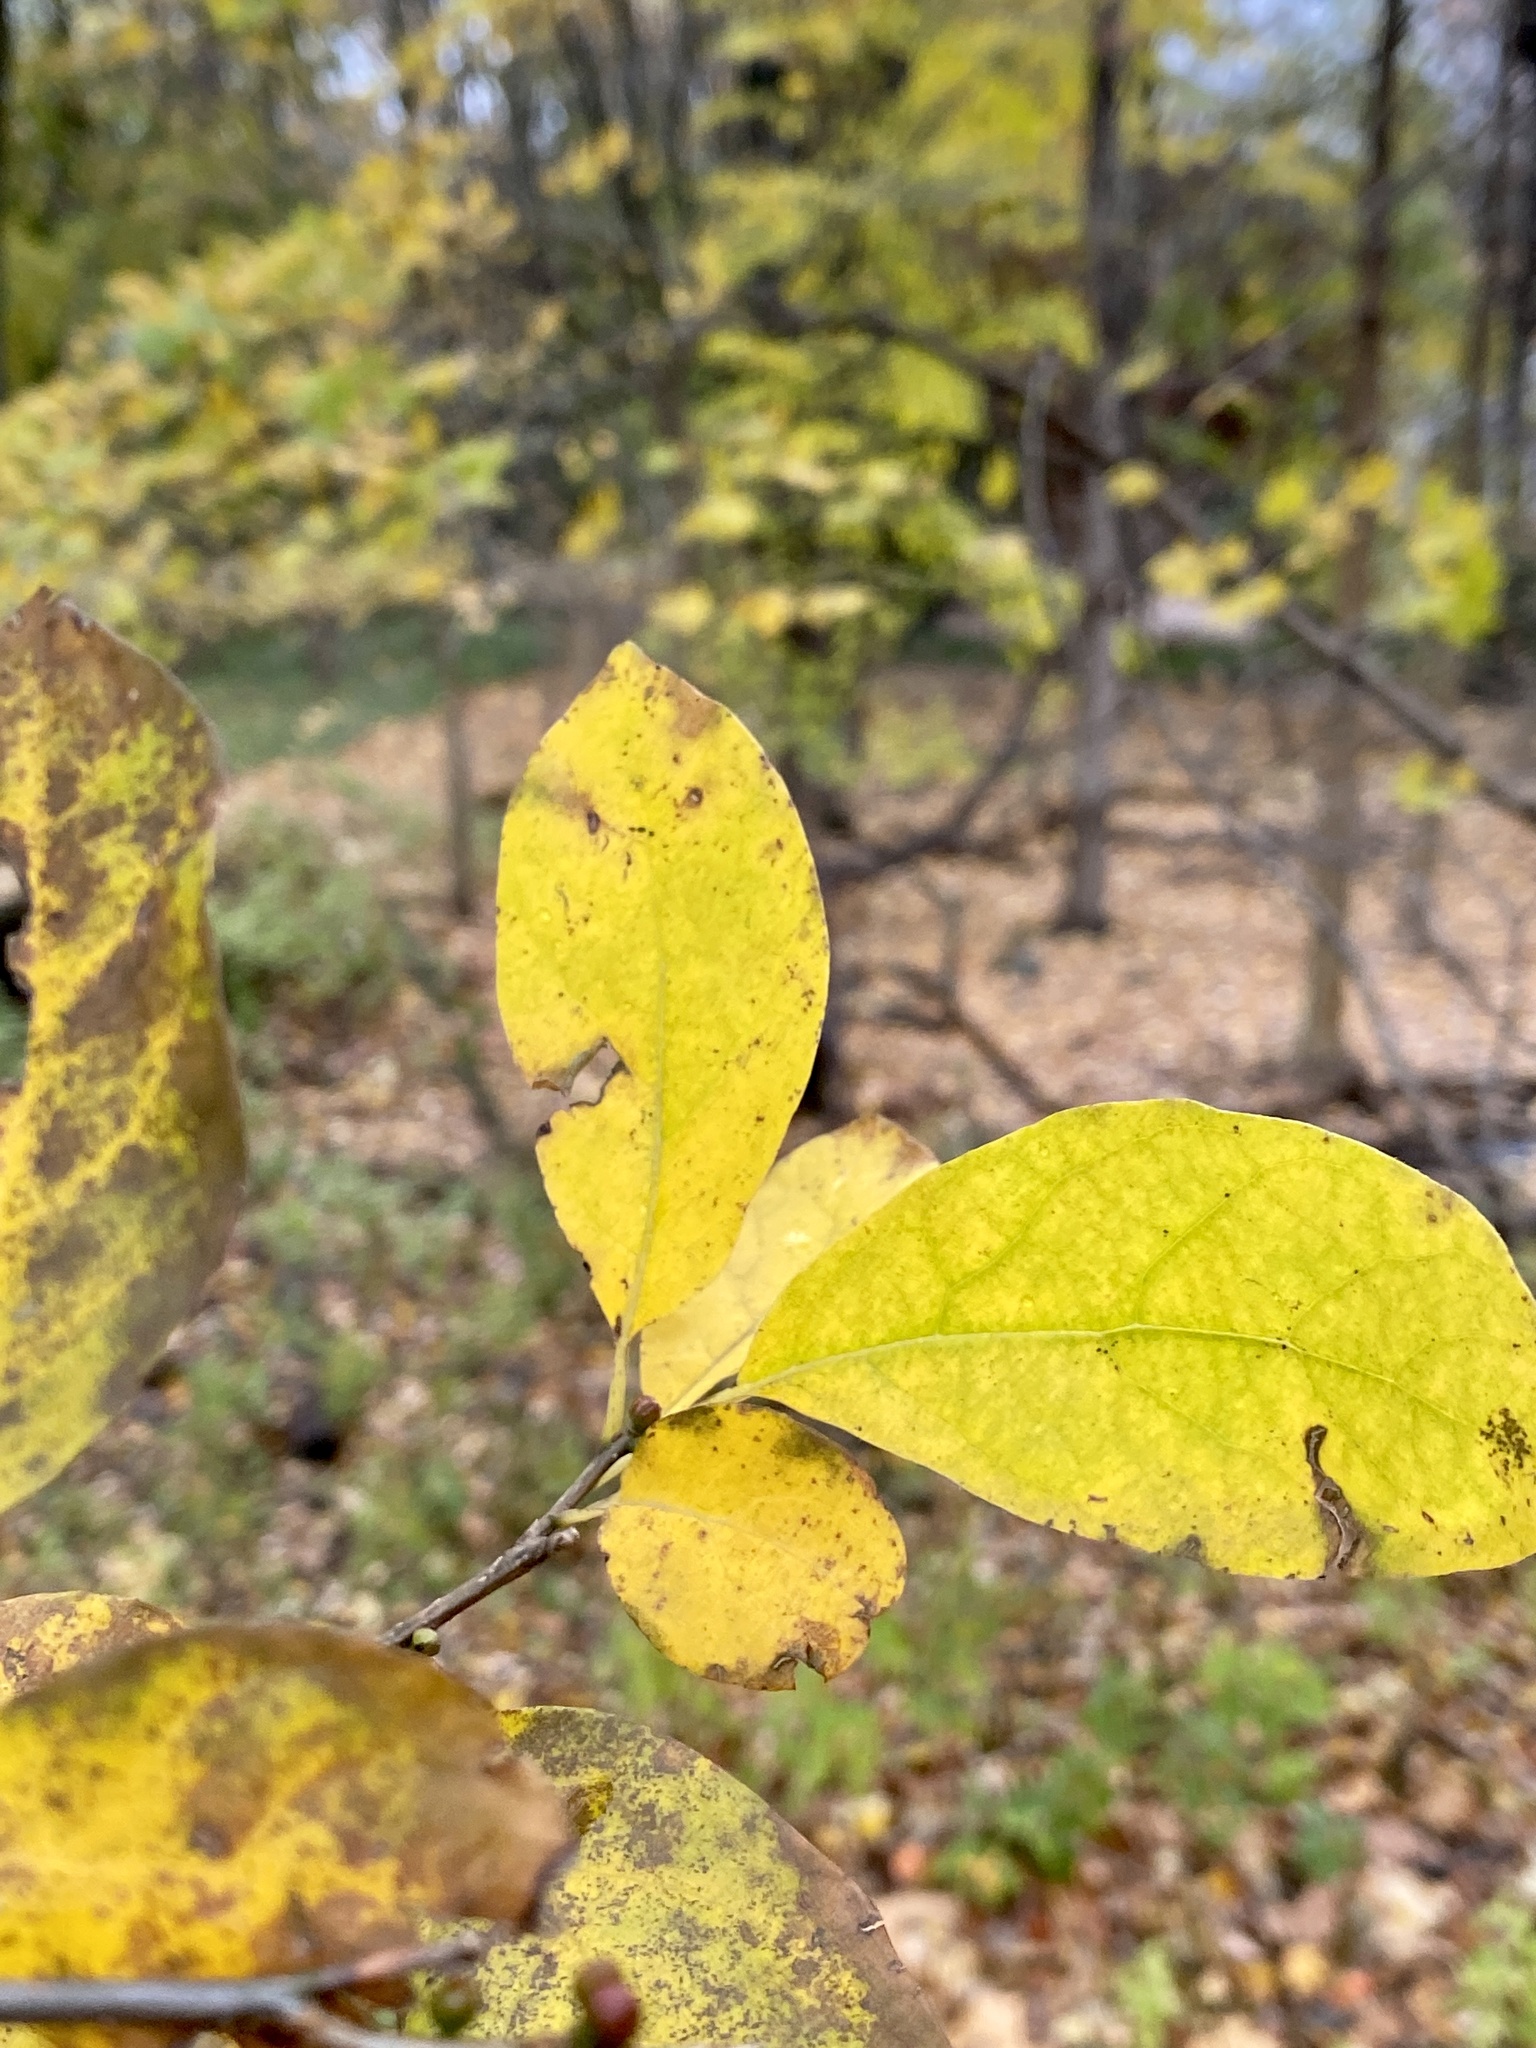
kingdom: Plantae
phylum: Tracheophyta
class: Magnoliopsida
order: Laurales
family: Lauraceae
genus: Lindera
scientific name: Lindera benzoin
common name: Spicebush
